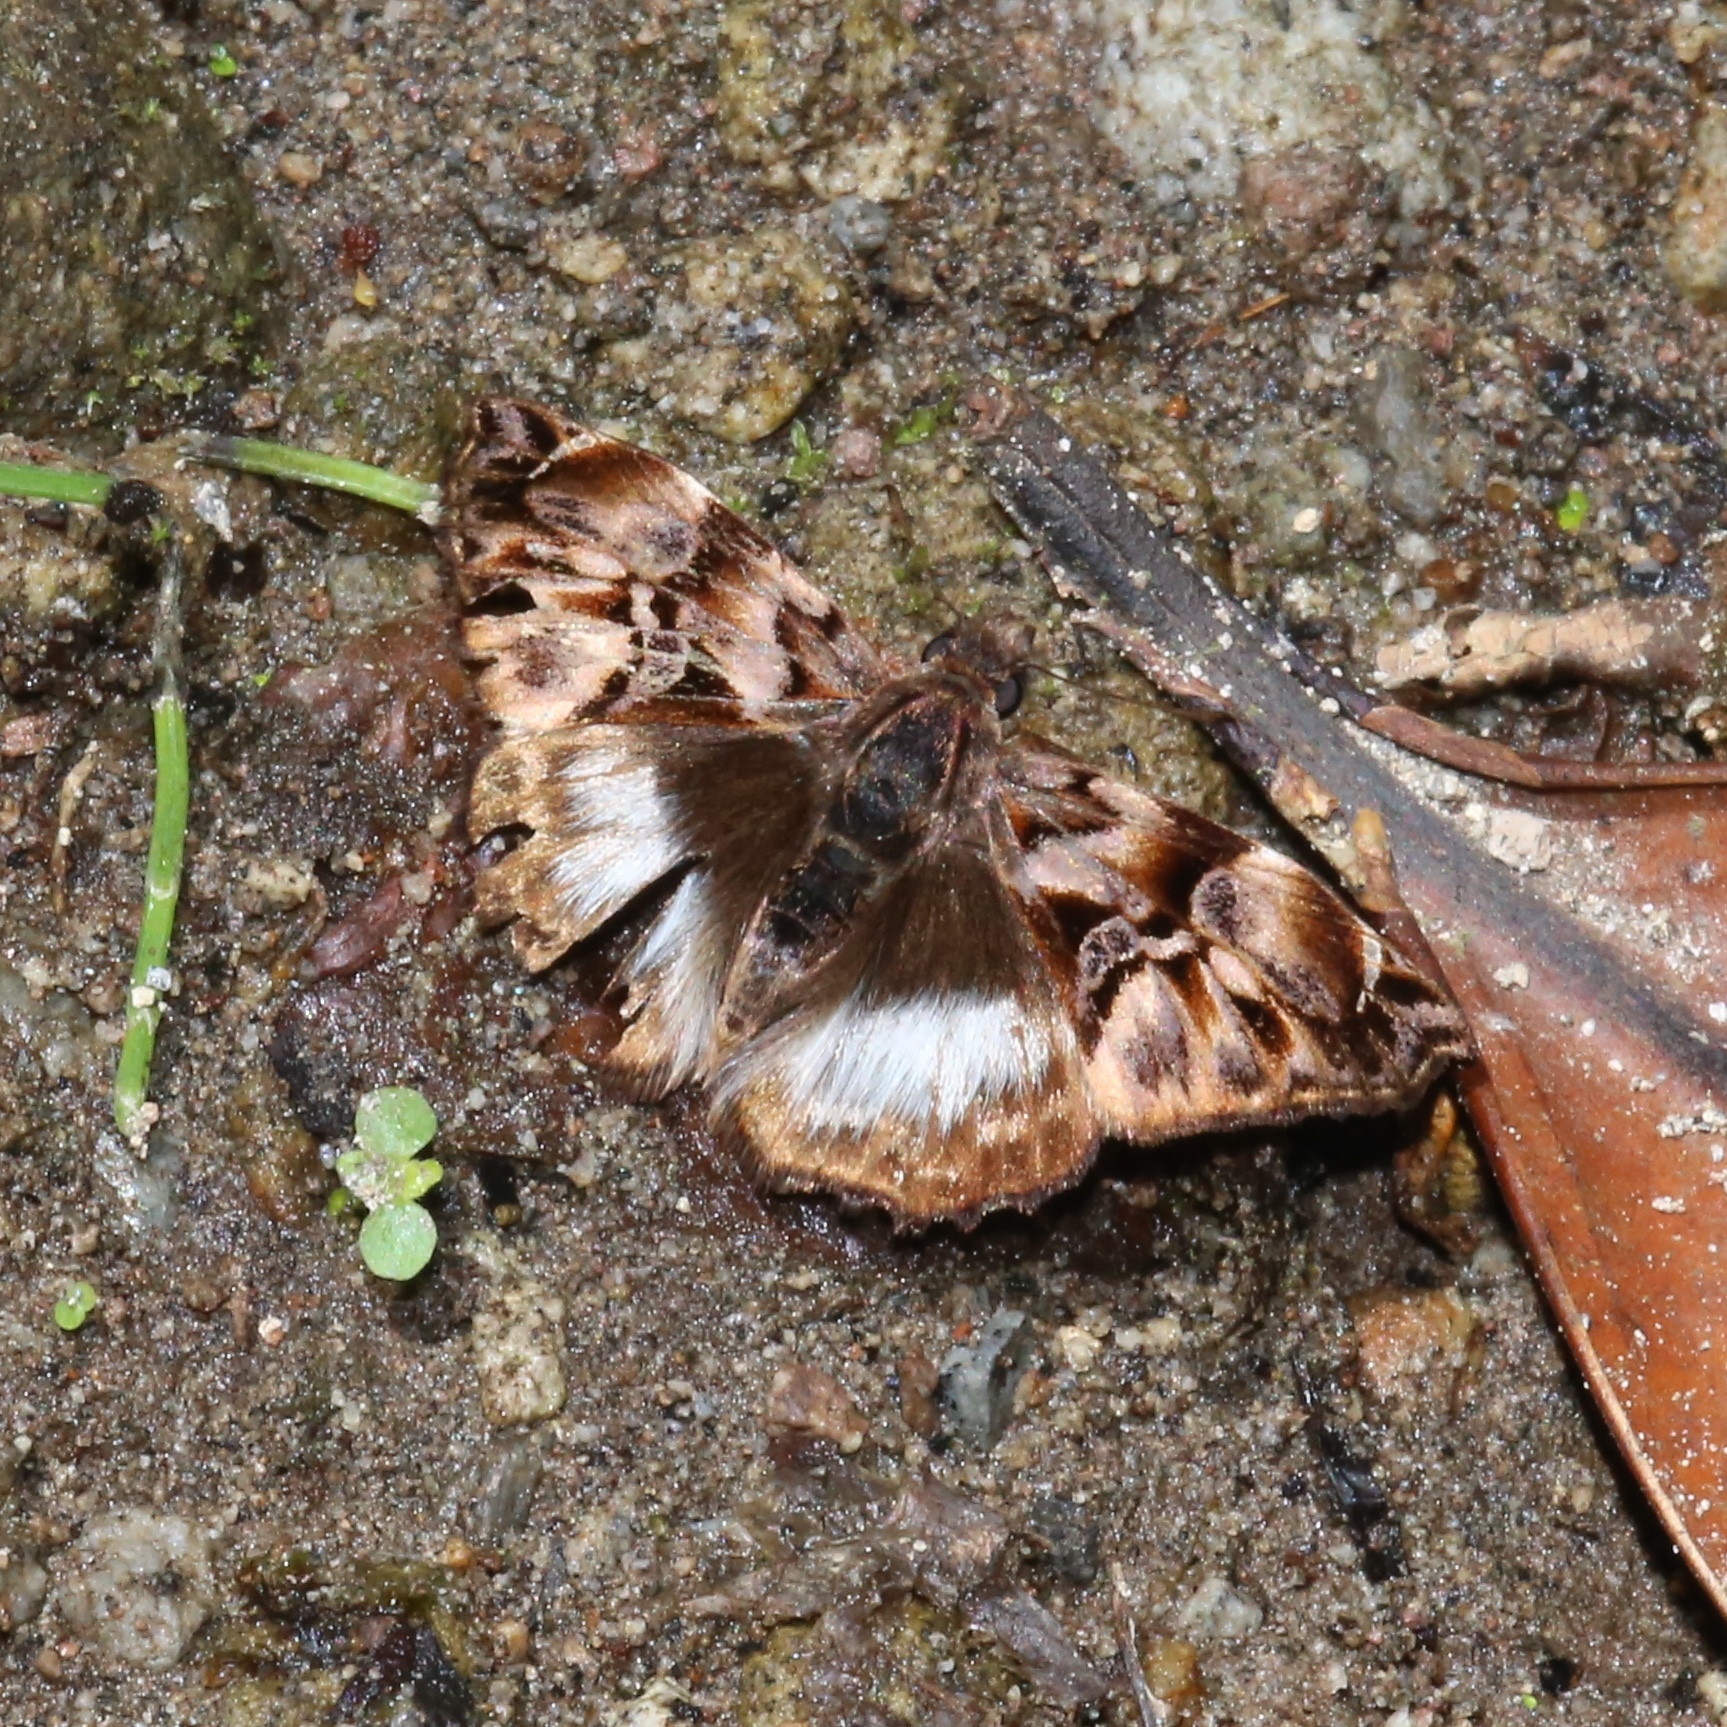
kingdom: Animalia
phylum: Arthropoda
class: Insecta
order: Lepidoptera
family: Hesperiidae
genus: Noctuana
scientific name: Noctuana lactifera
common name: Cryptic skipper
